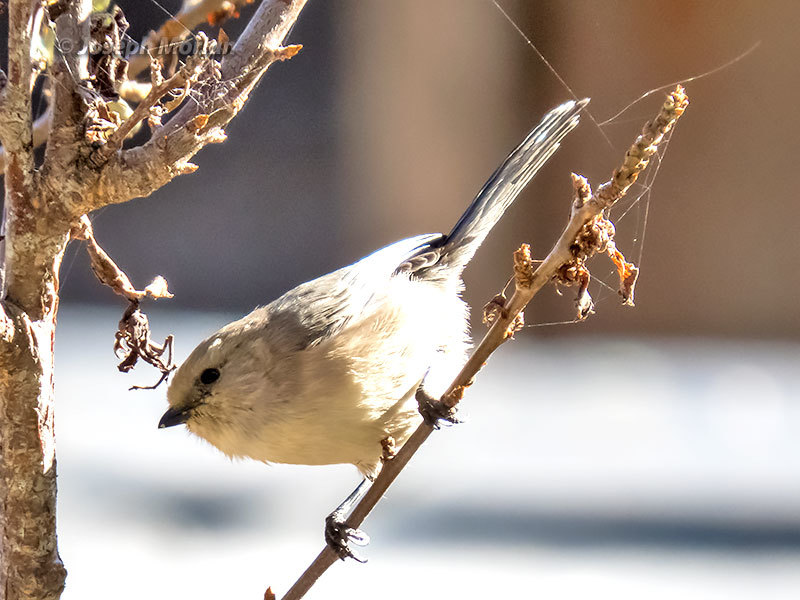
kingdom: Animalia
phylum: Chordata
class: Aves
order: Passeriformes
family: Aegithalidae
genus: Psaltriparus
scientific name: Psaltriparus minimus
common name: American bushtit
